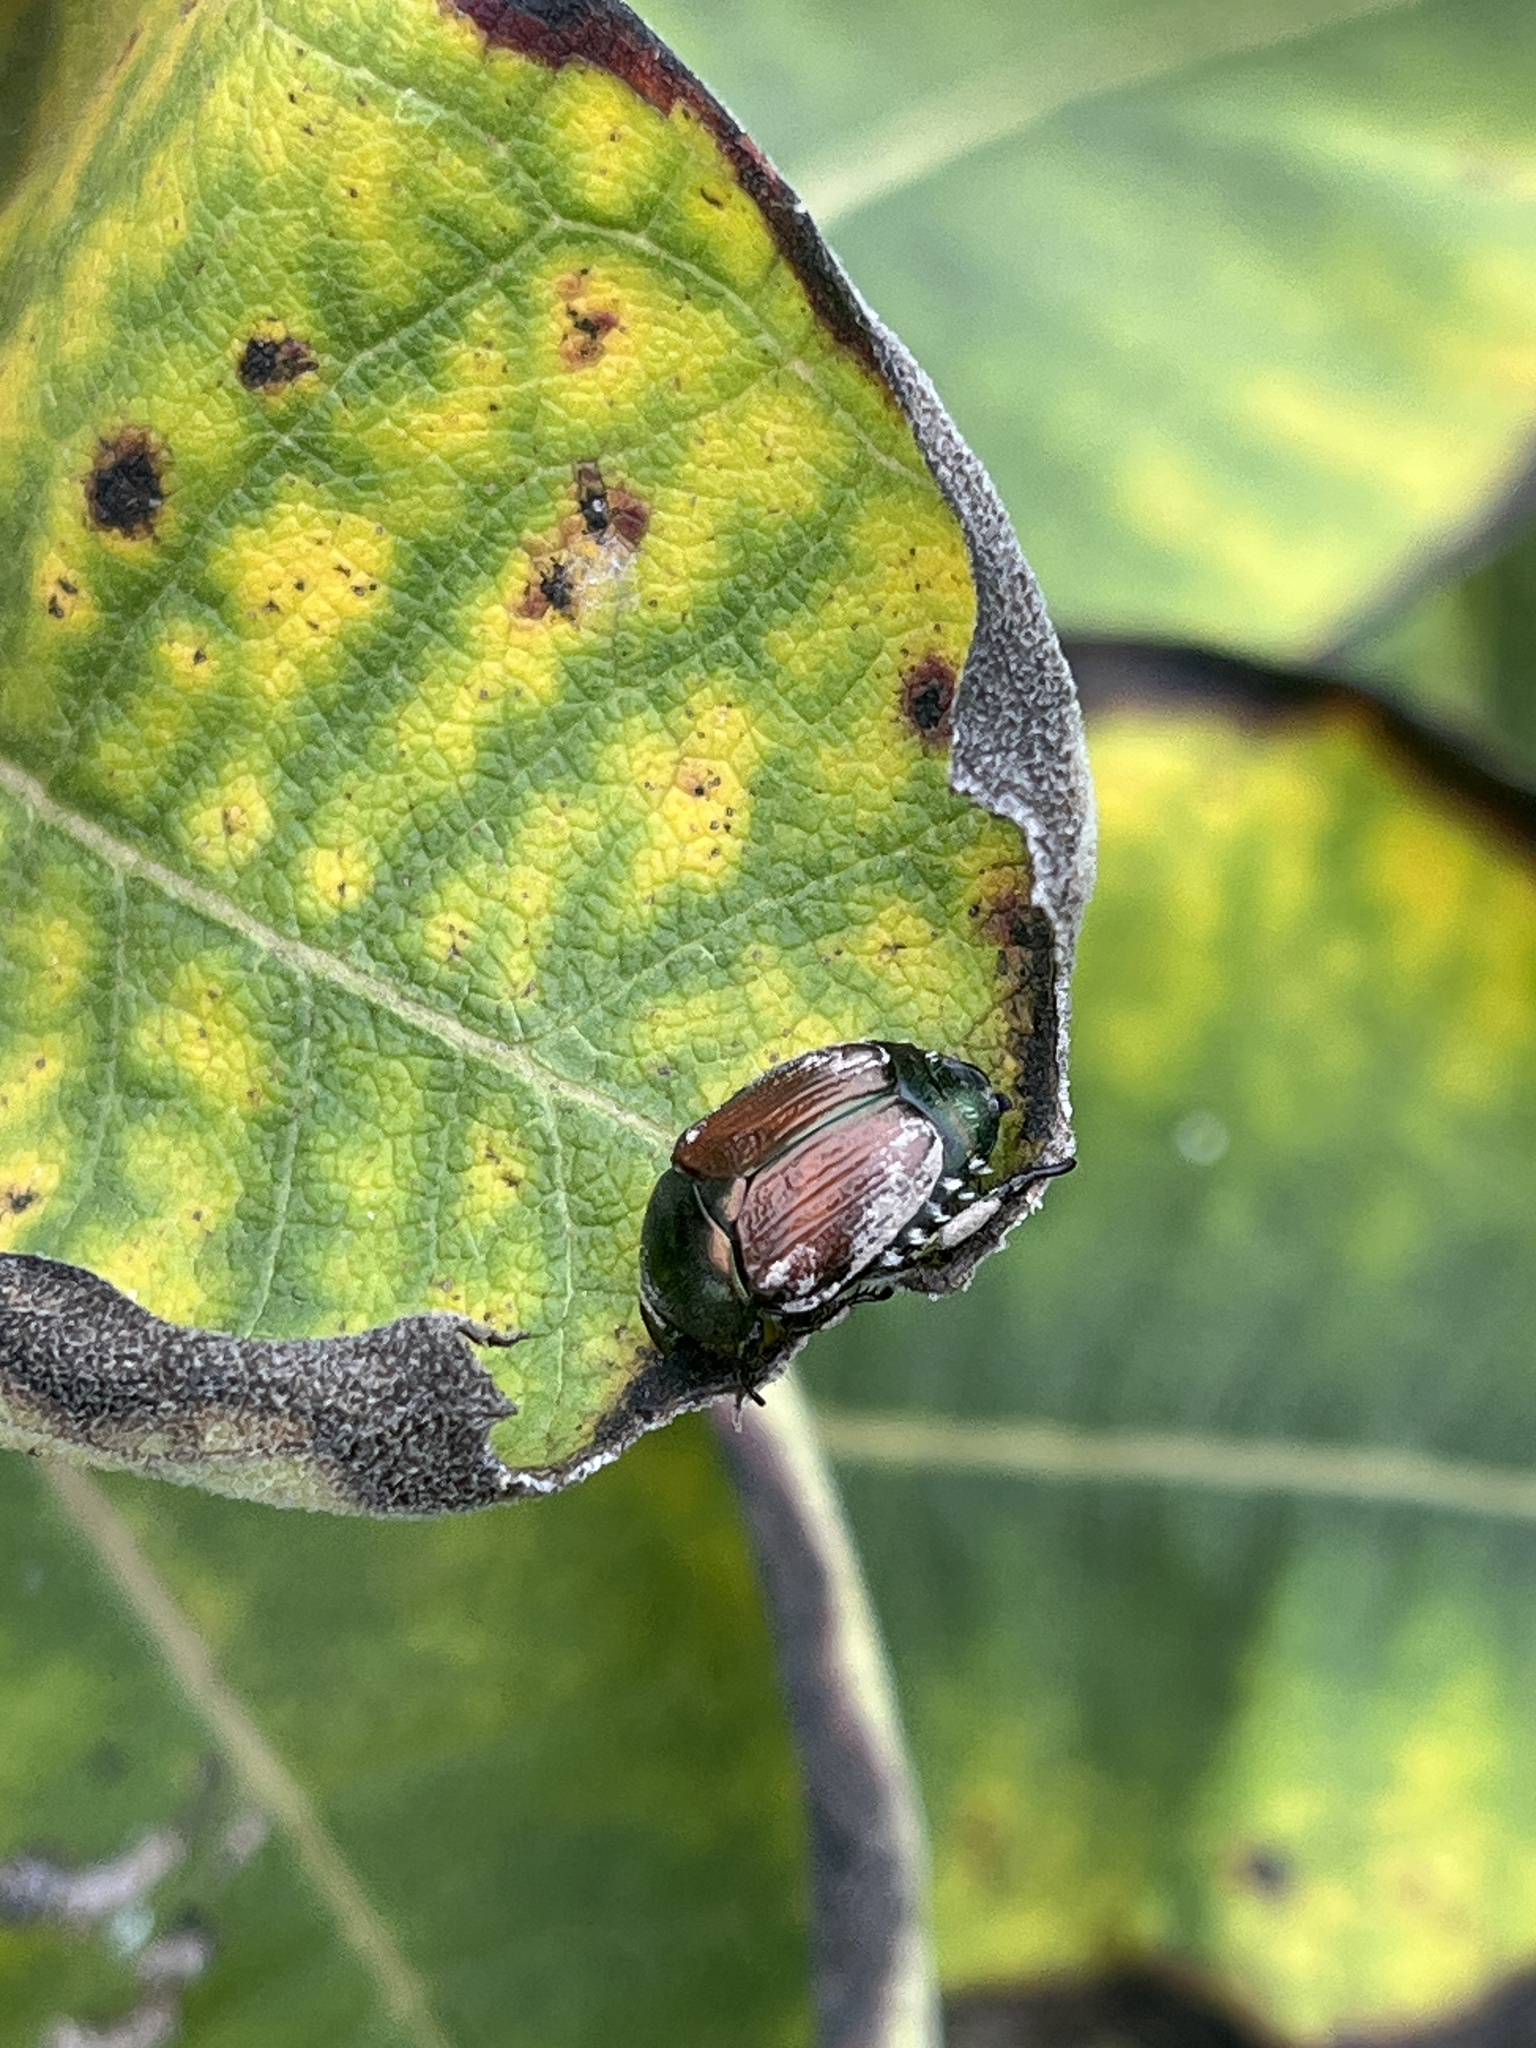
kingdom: Animalia
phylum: Arthropoda
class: Insecta
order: Coleoptera
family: Scarabaeidae
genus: Popillia
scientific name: Popillia japonica
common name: Japanese beetle
